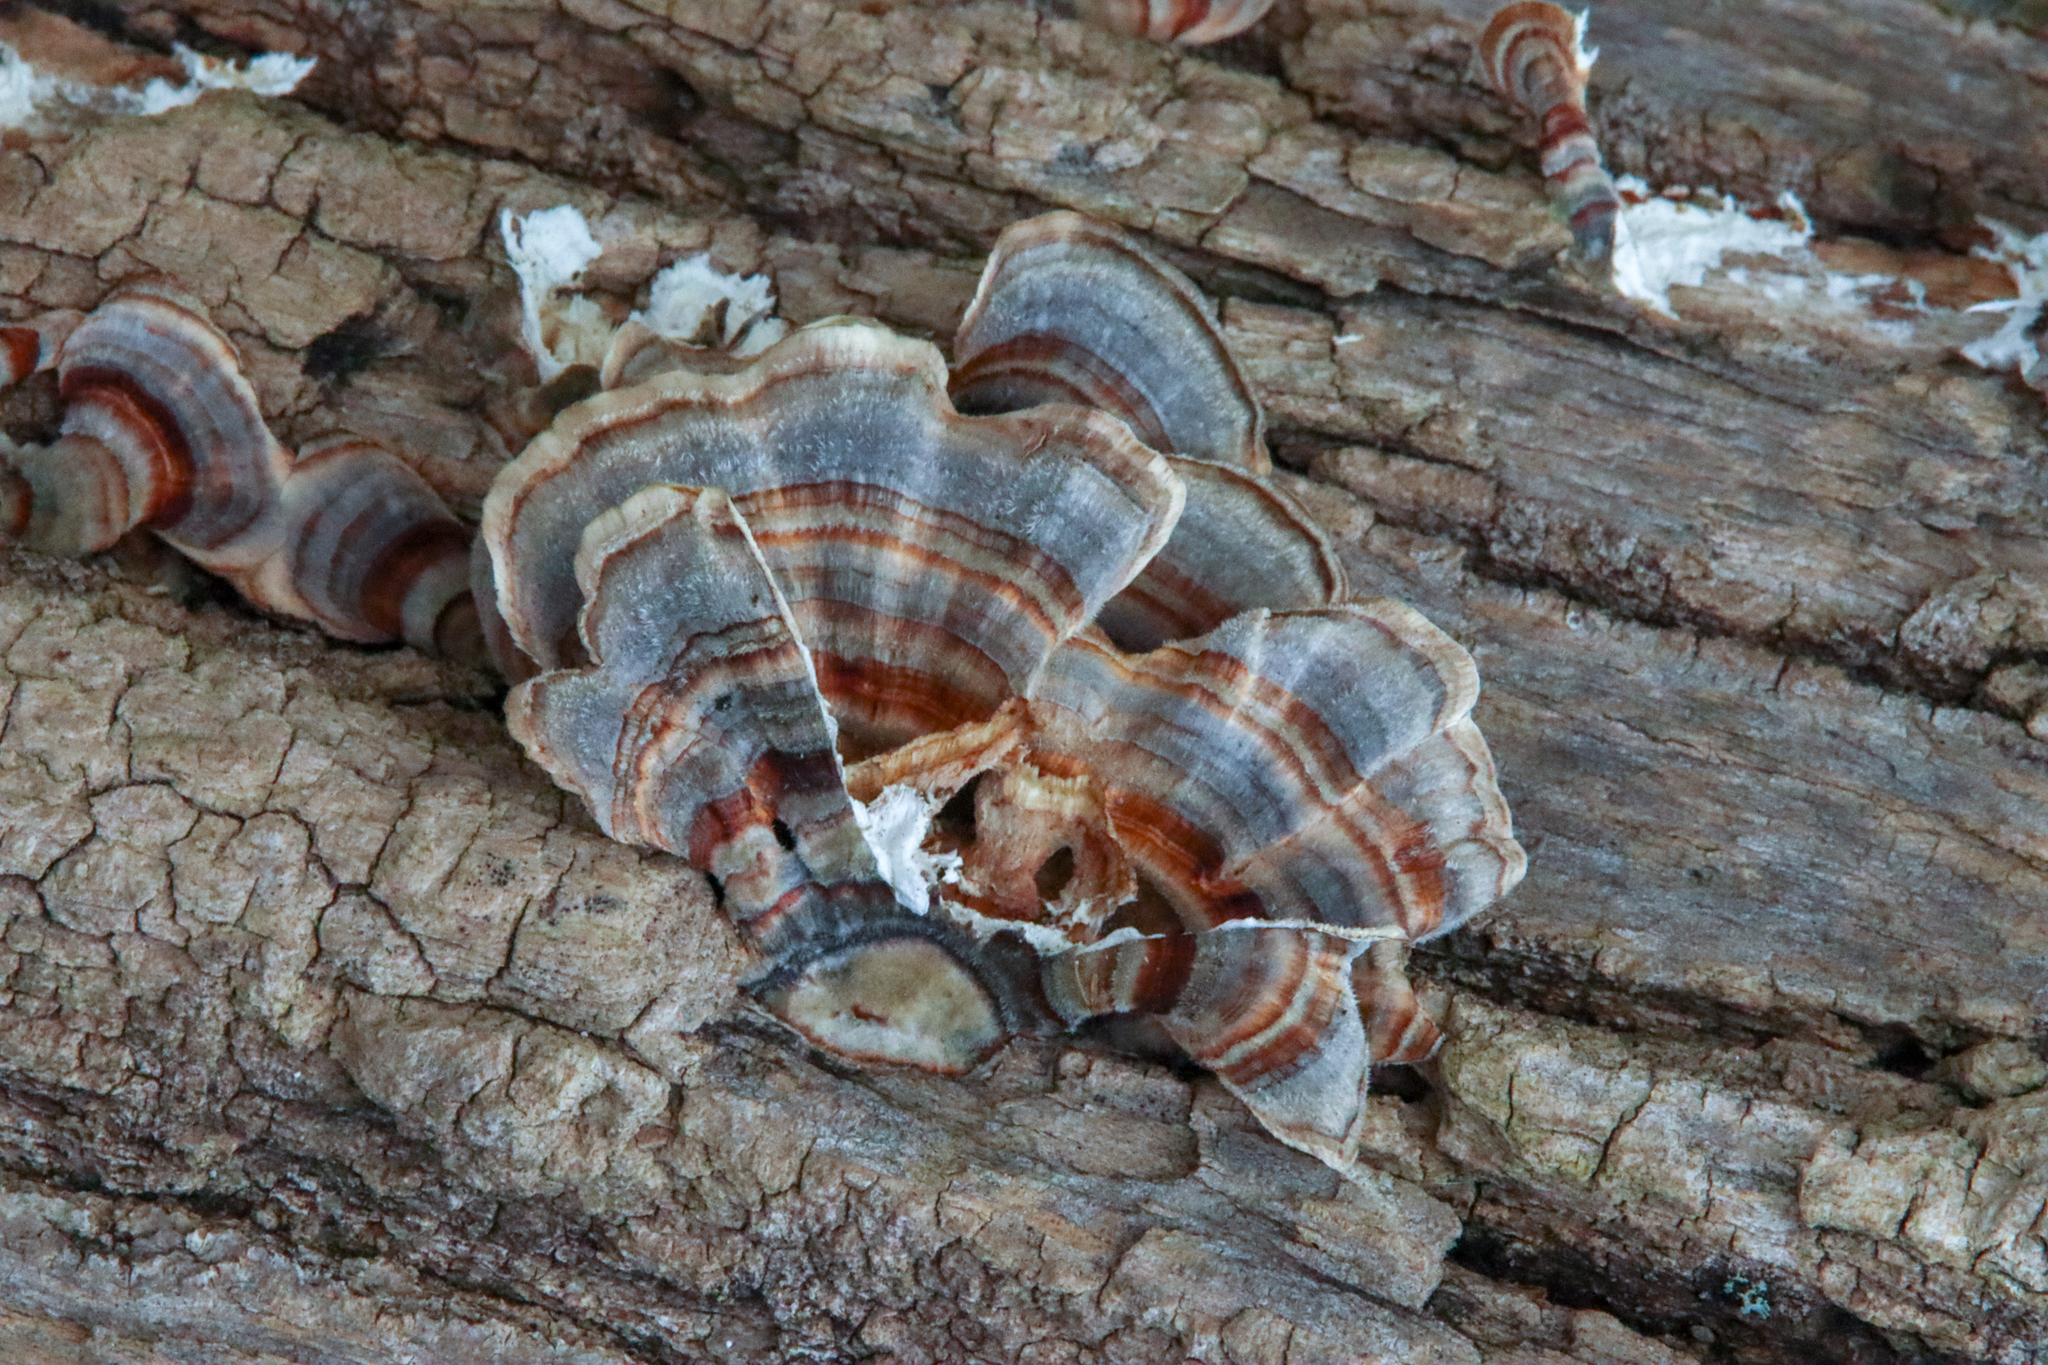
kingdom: Fungi
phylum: Basidiomycota
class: Agaricomycetes
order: Polyporales
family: Polyporaceae
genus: Trametes
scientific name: Trametes versicolor
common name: Turkeytail
